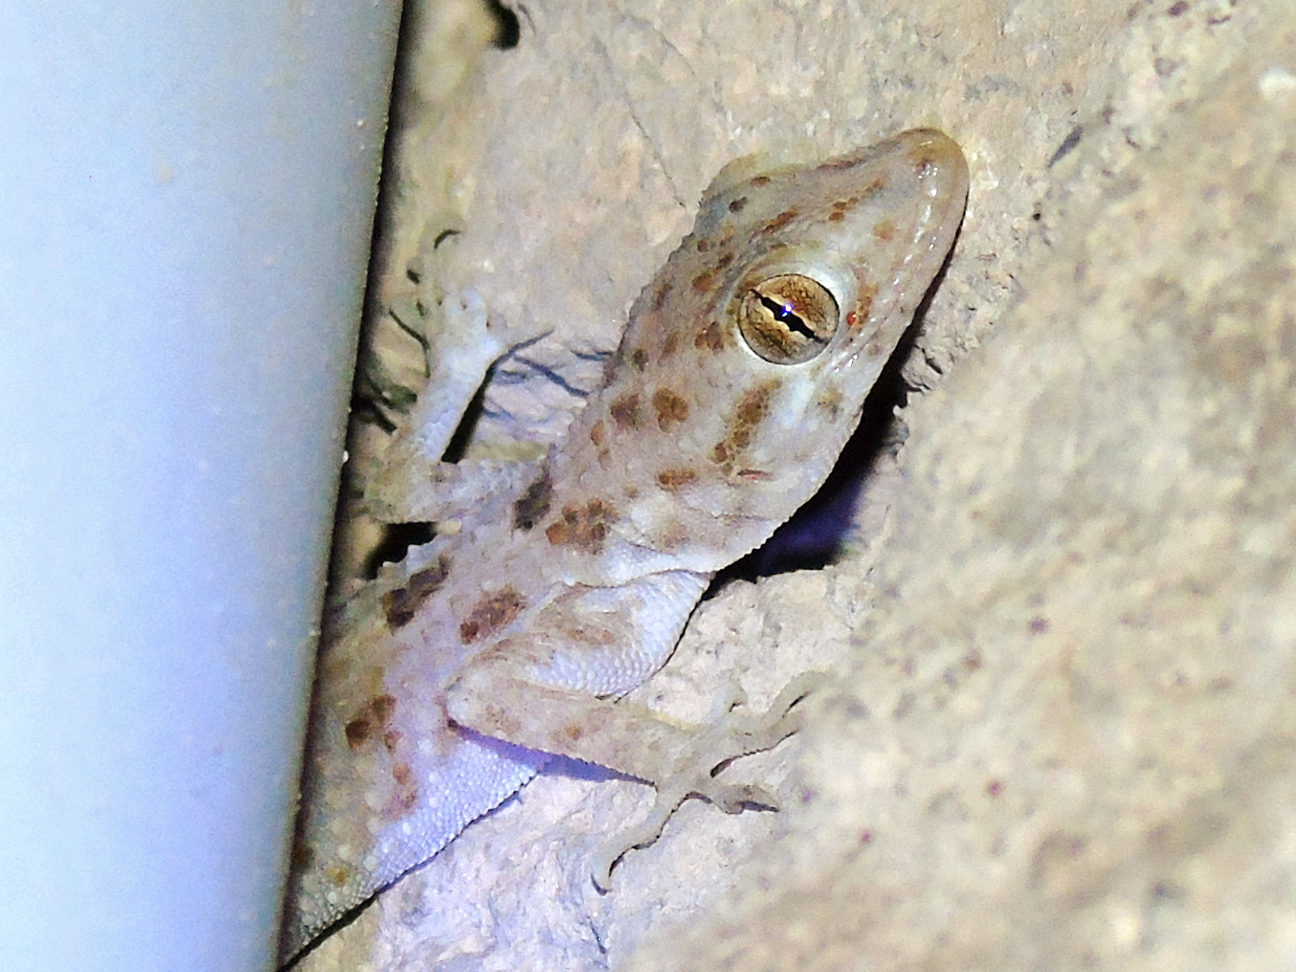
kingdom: Animalia
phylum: Chordata
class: Squamata
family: Gekkonidae
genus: Cyrtopodion
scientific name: Cyrtopodion scabrum
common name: Rough-tailed gecko
